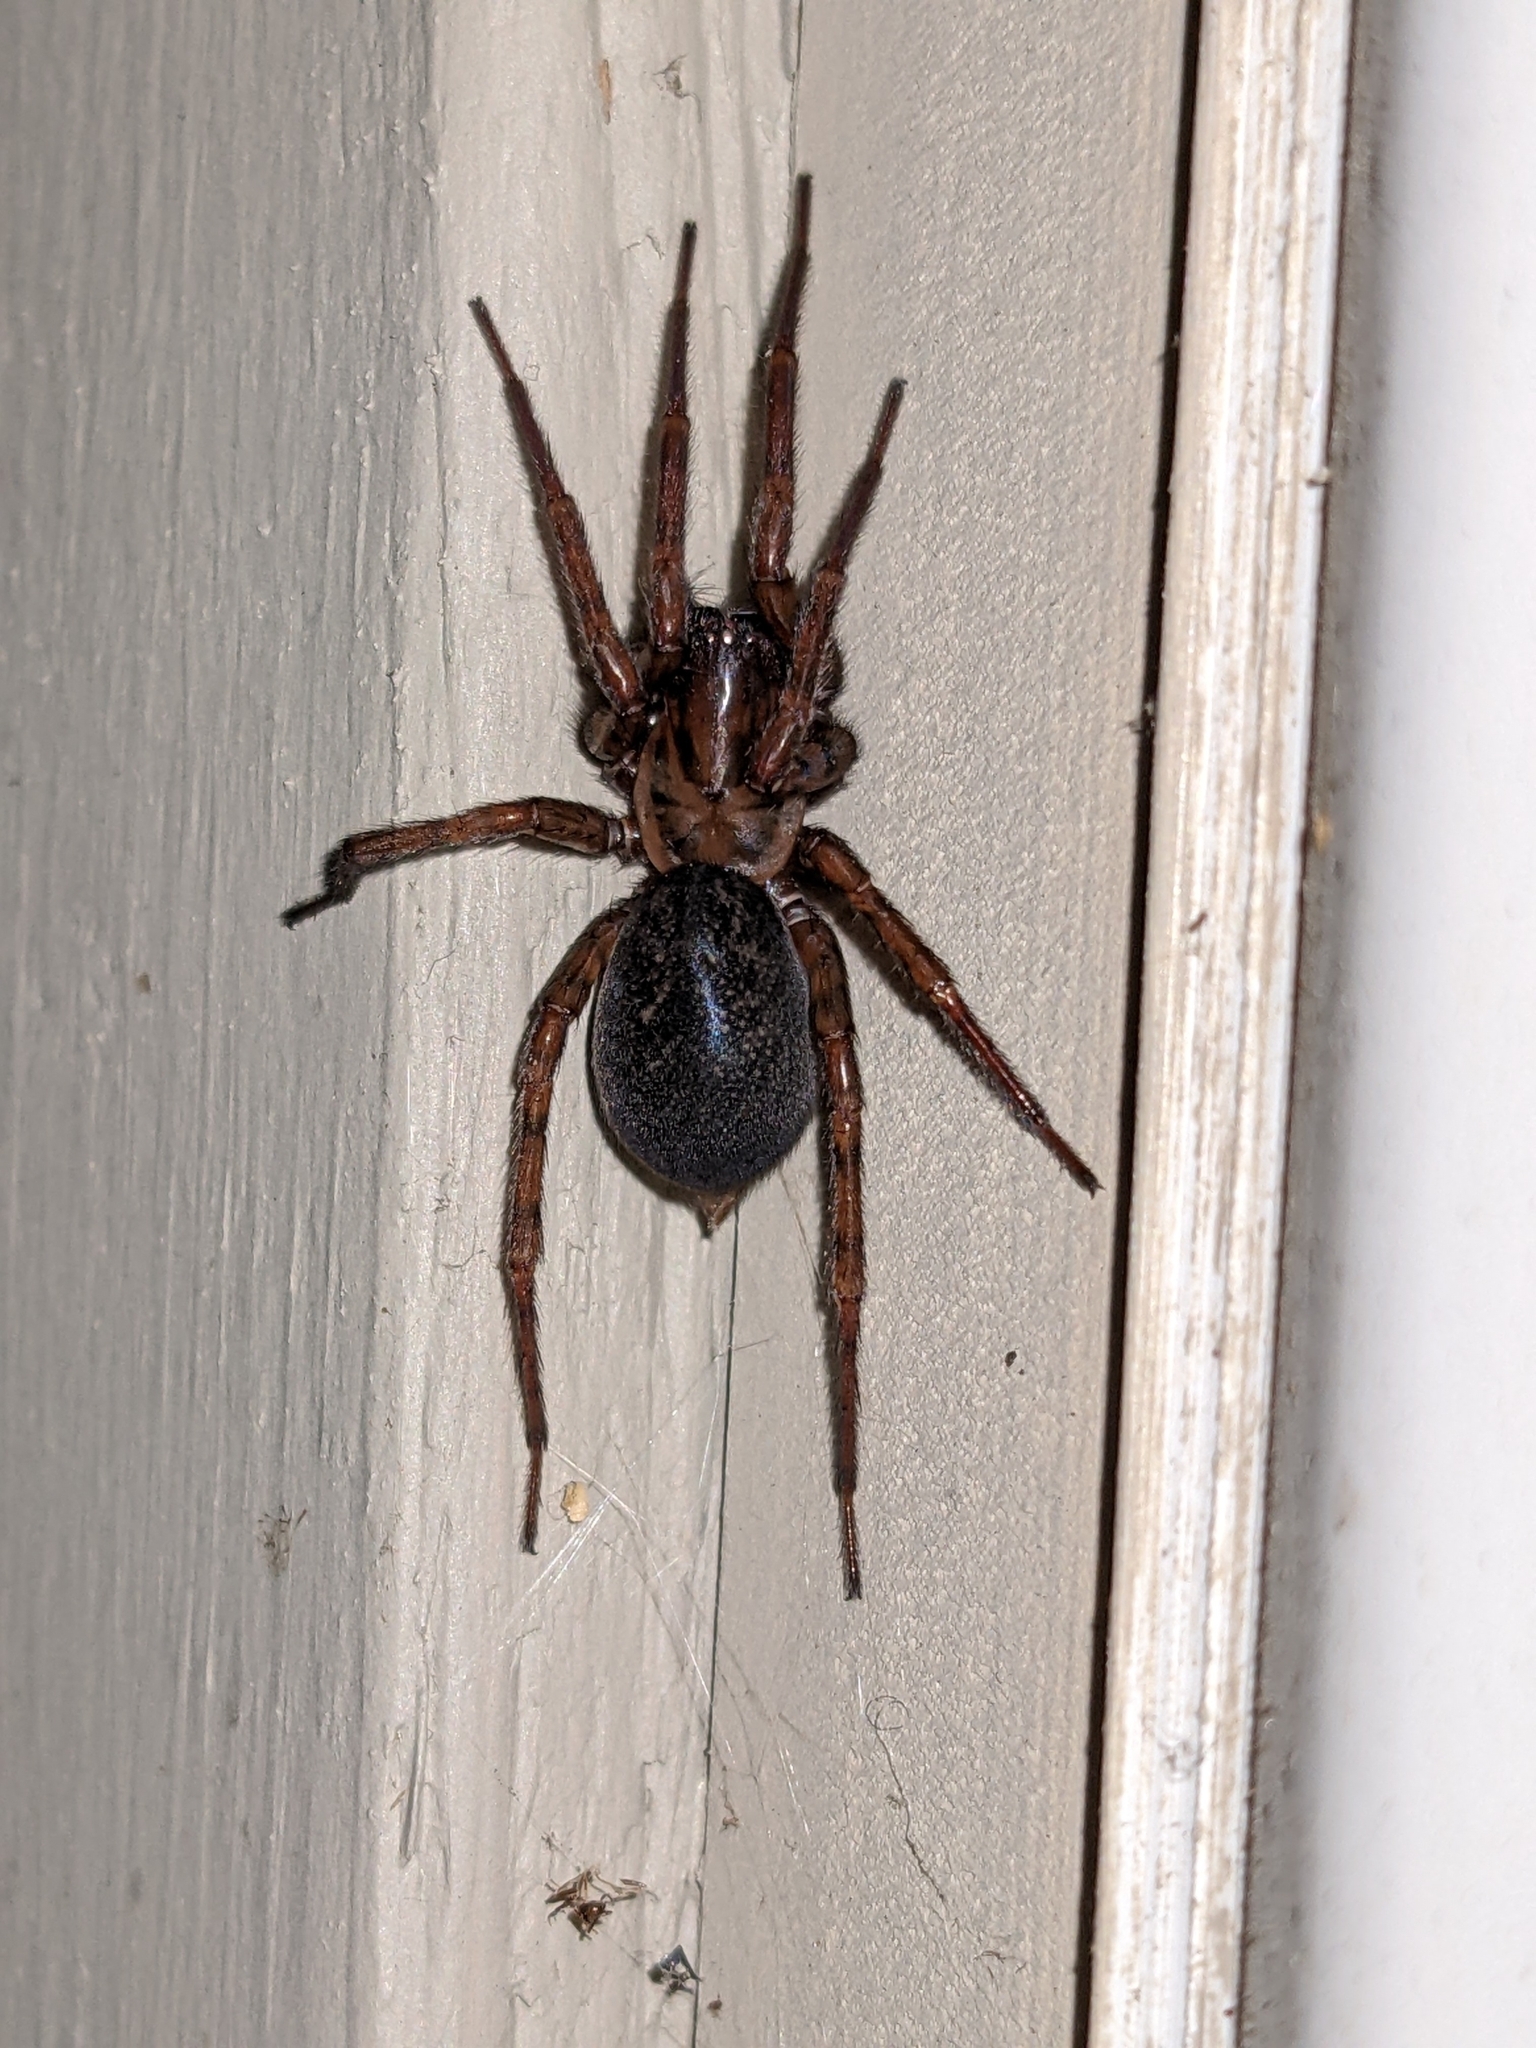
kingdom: Animalia
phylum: Arthropoda
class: Arachnida
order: Araneae
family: Agelenidae
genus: Coras
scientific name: Coras
